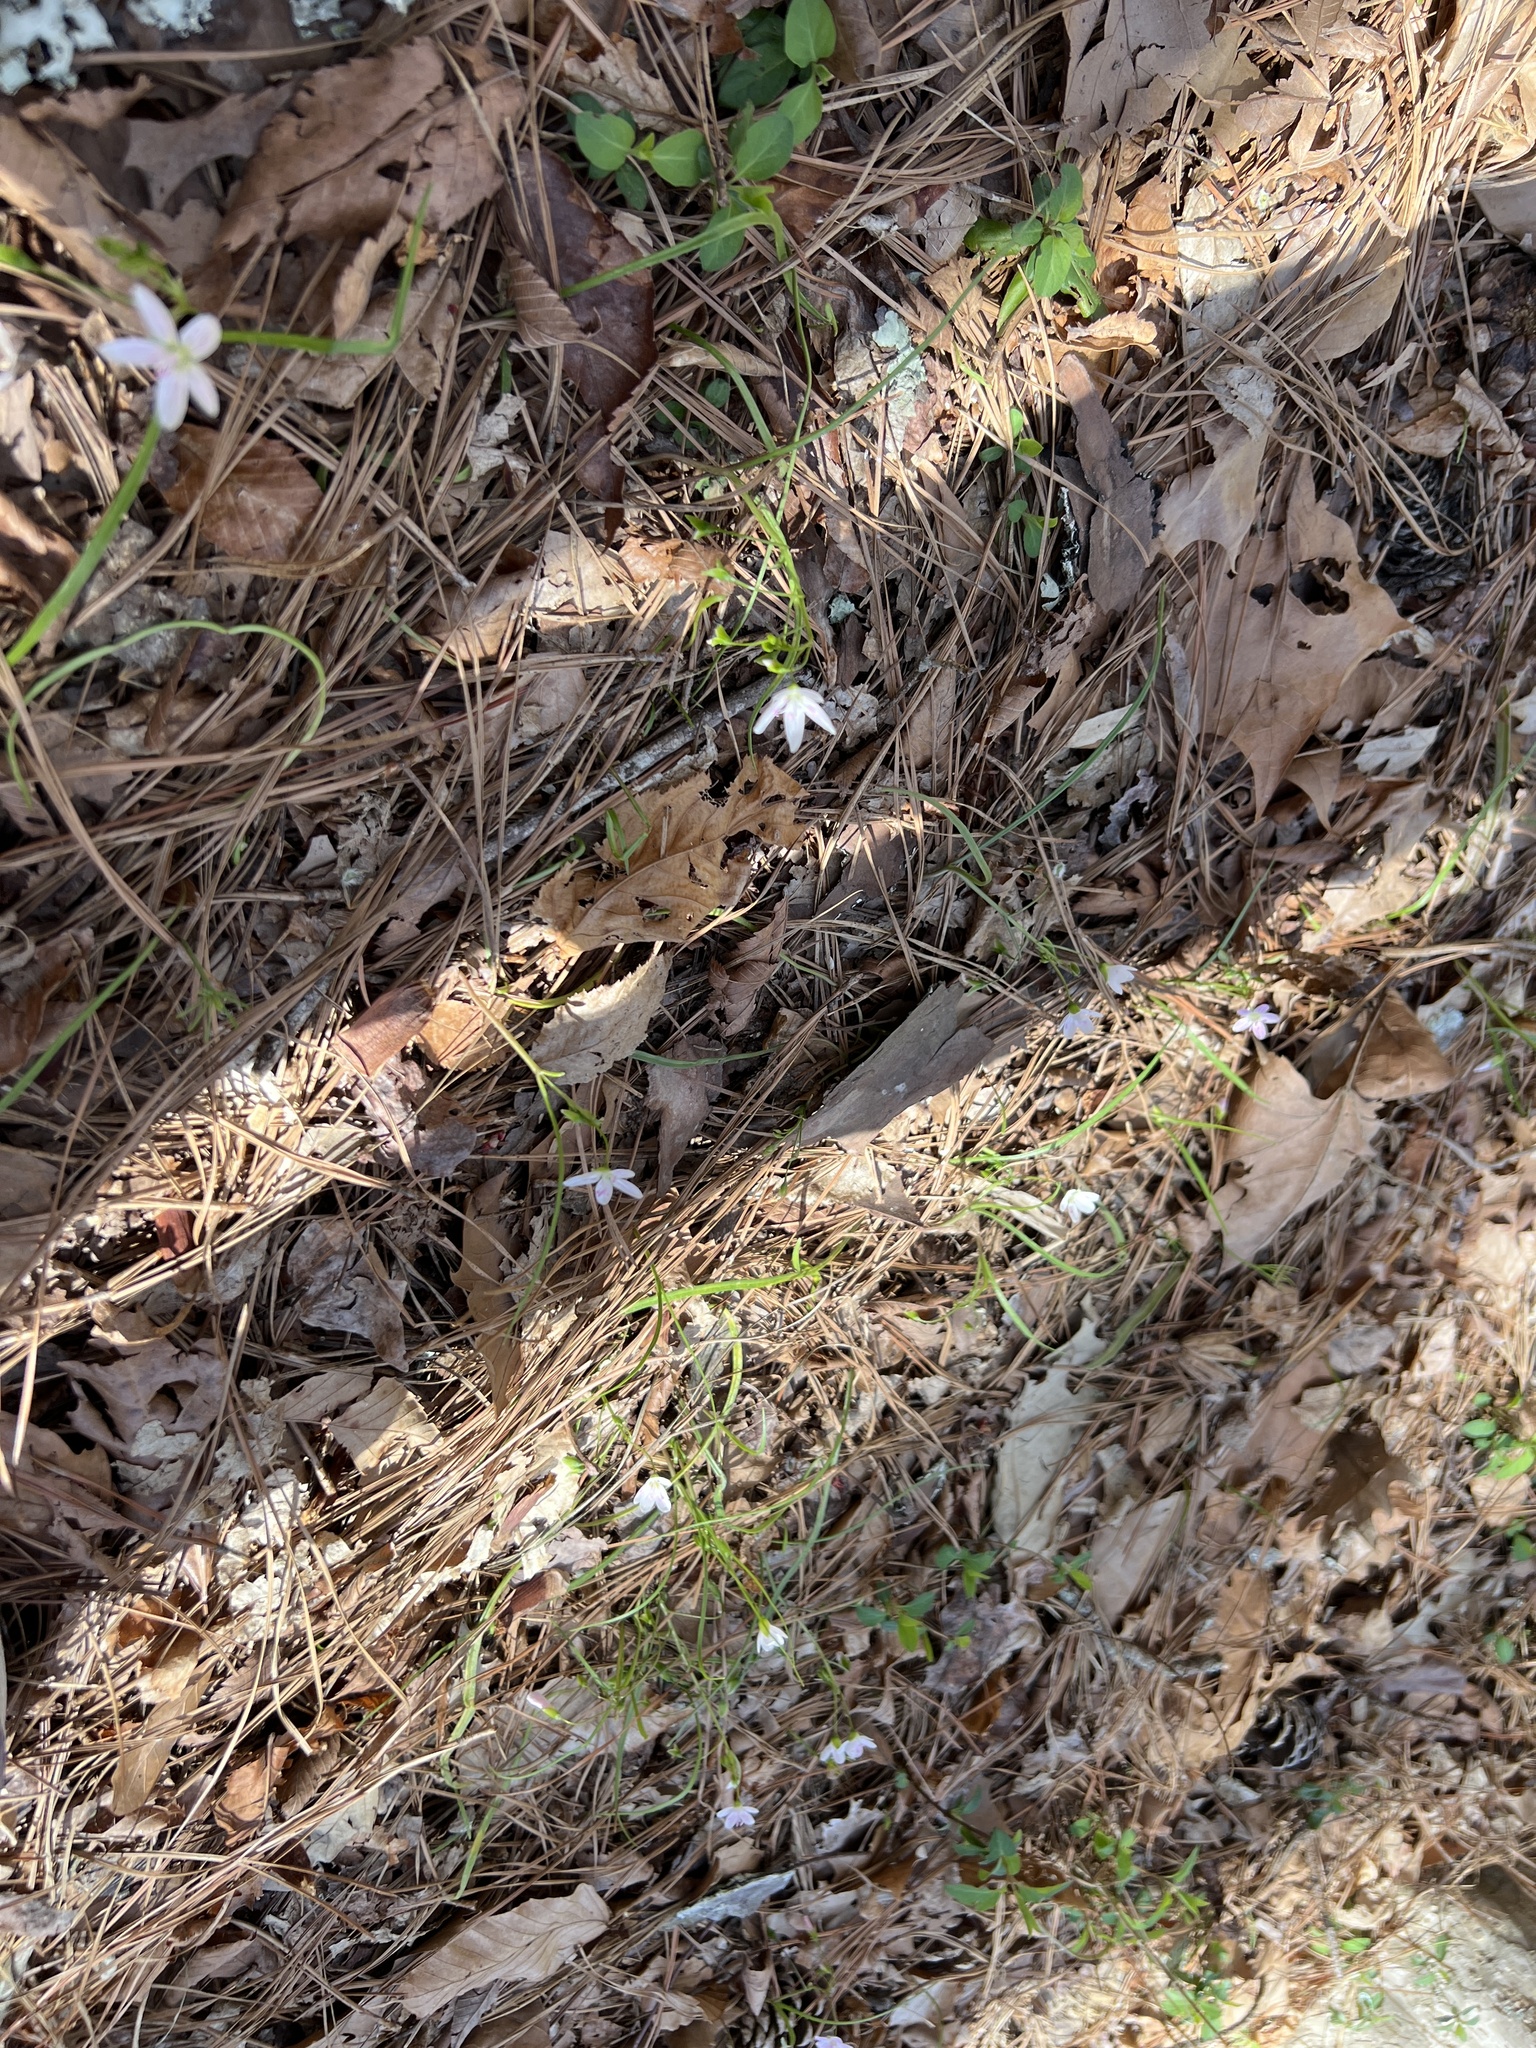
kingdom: Plantae
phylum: Tracheophyta
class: Magnoliopsida
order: Caryophyllales
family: Montiaceae
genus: Claytonia
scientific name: Claytonia virginica
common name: Virginia springbeauty
